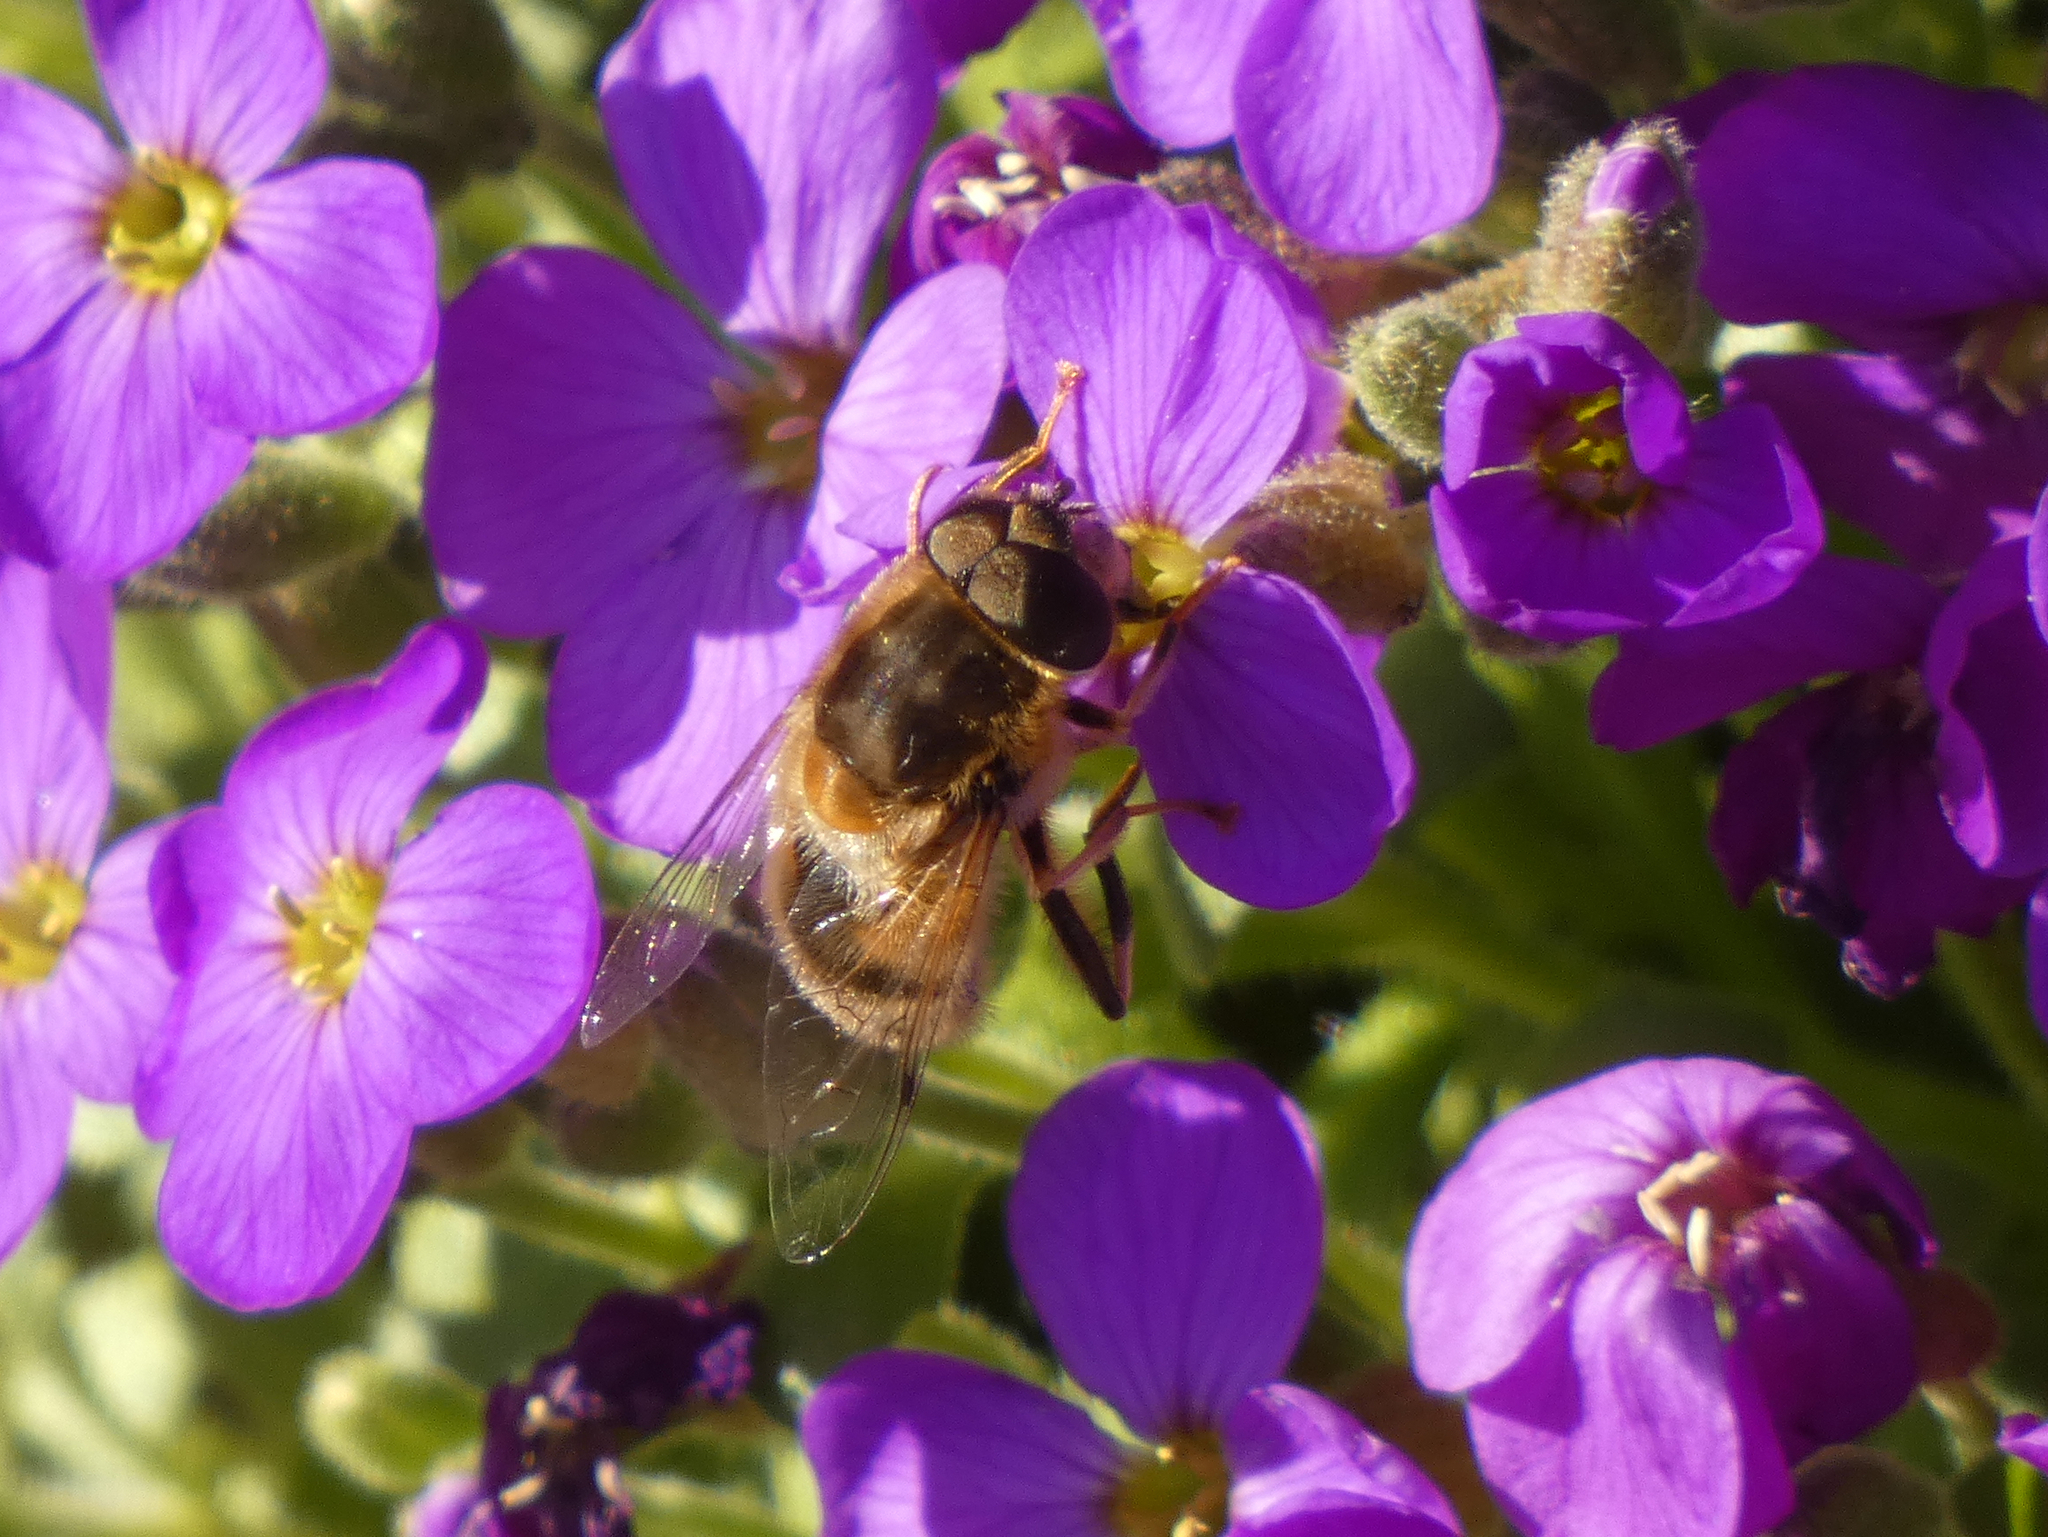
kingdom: Animalia
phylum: Arthropoda
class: Insecta
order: Diptera
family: Syrphidae
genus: Eristalis
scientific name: Eristalis pertinax
